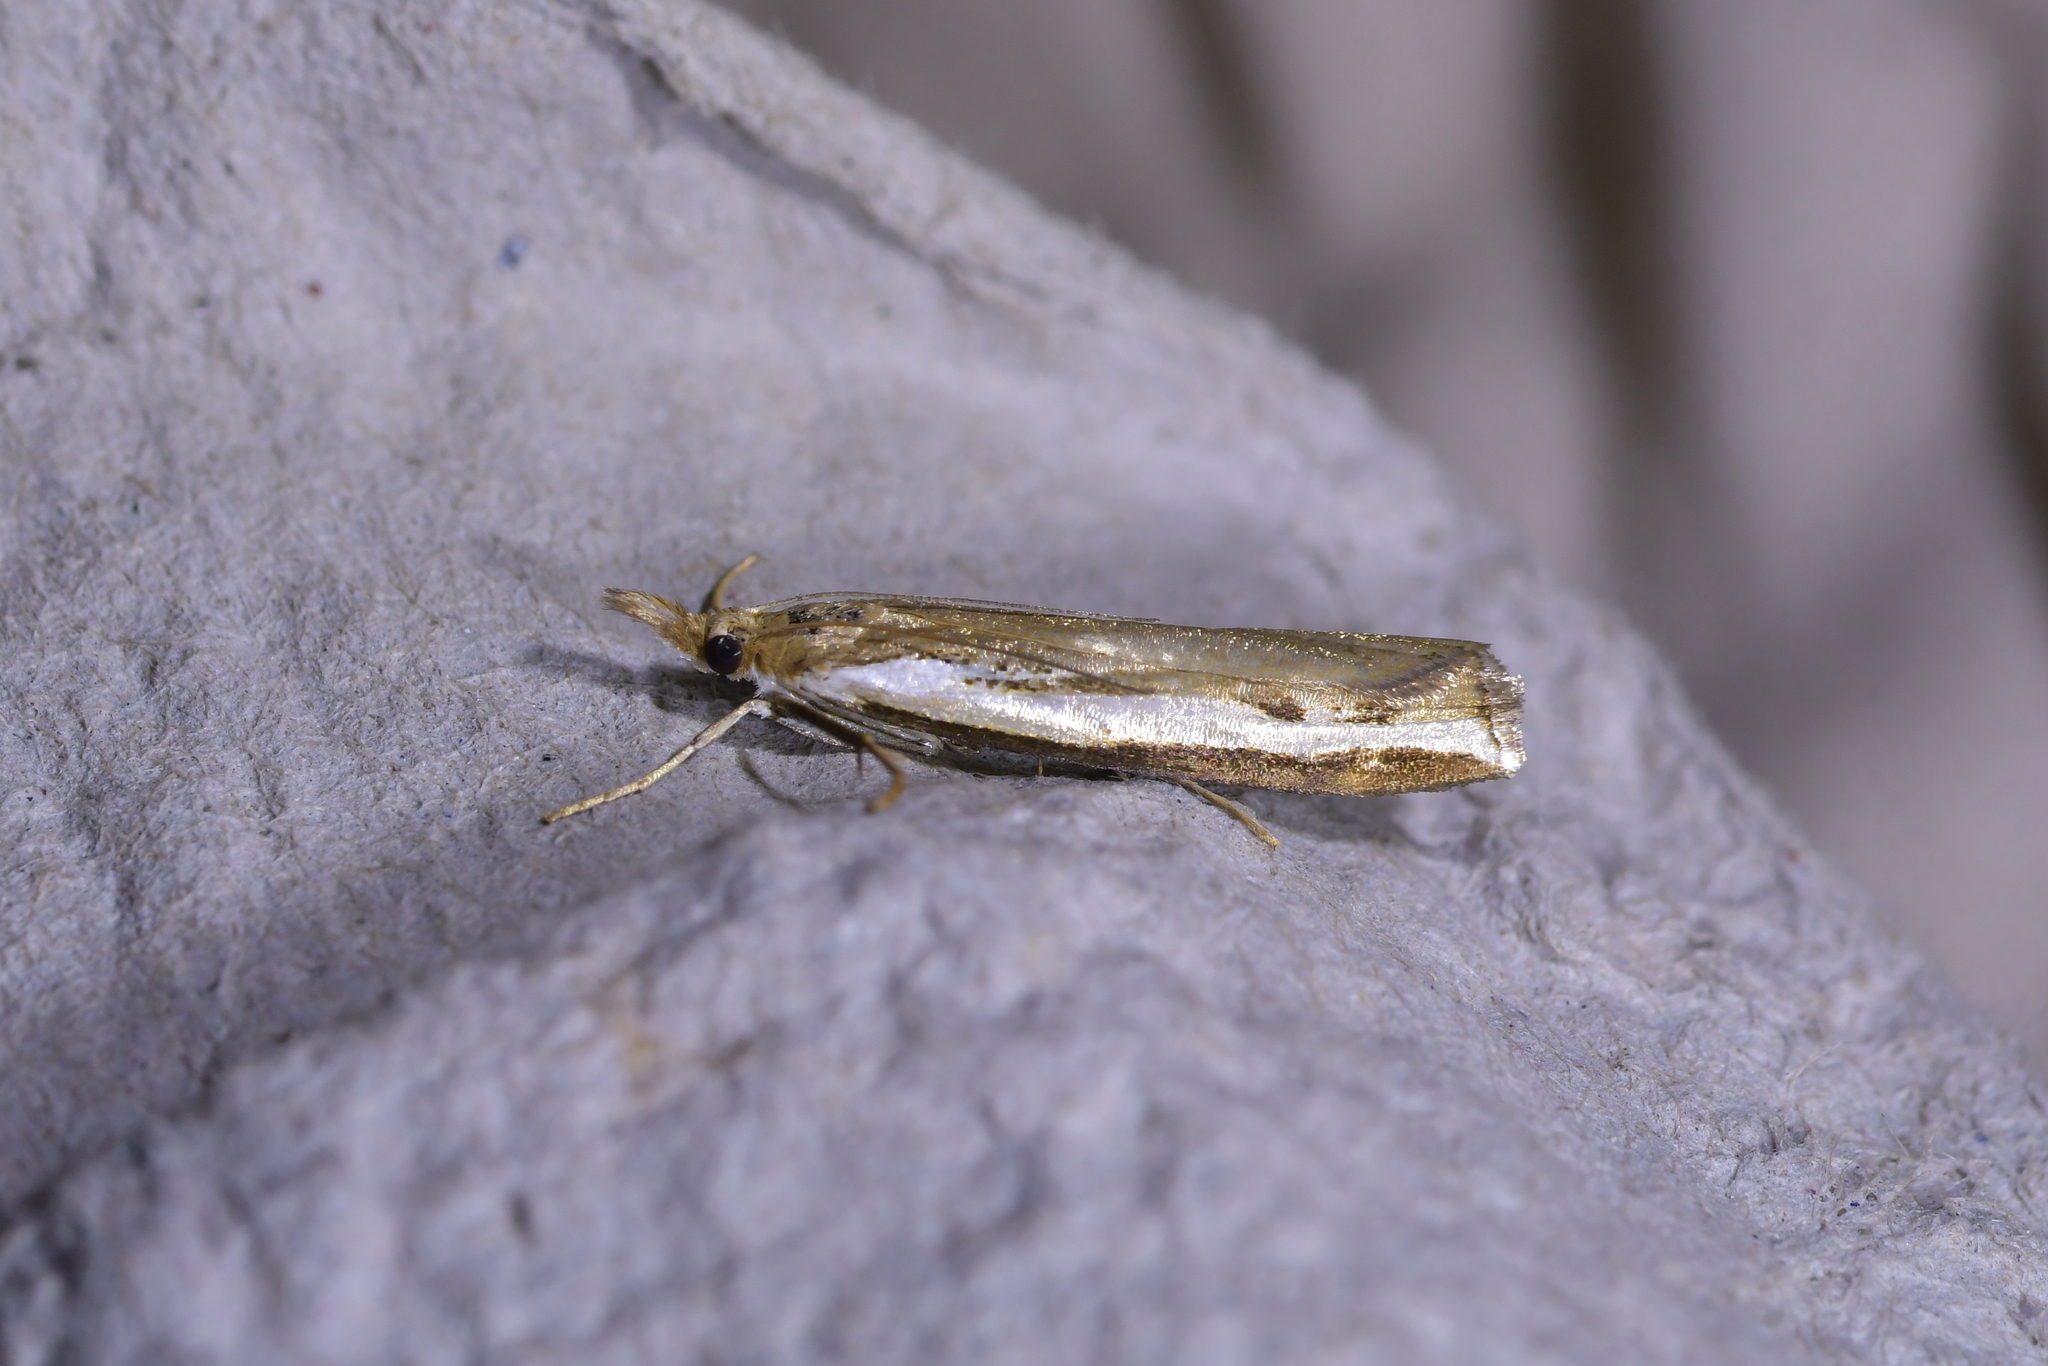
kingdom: Animalia
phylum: Arthropoda
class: Insecta
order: Lepidoptera
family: Crambidae
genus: Orocrambus
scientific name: Orocrambus flexuosellus
